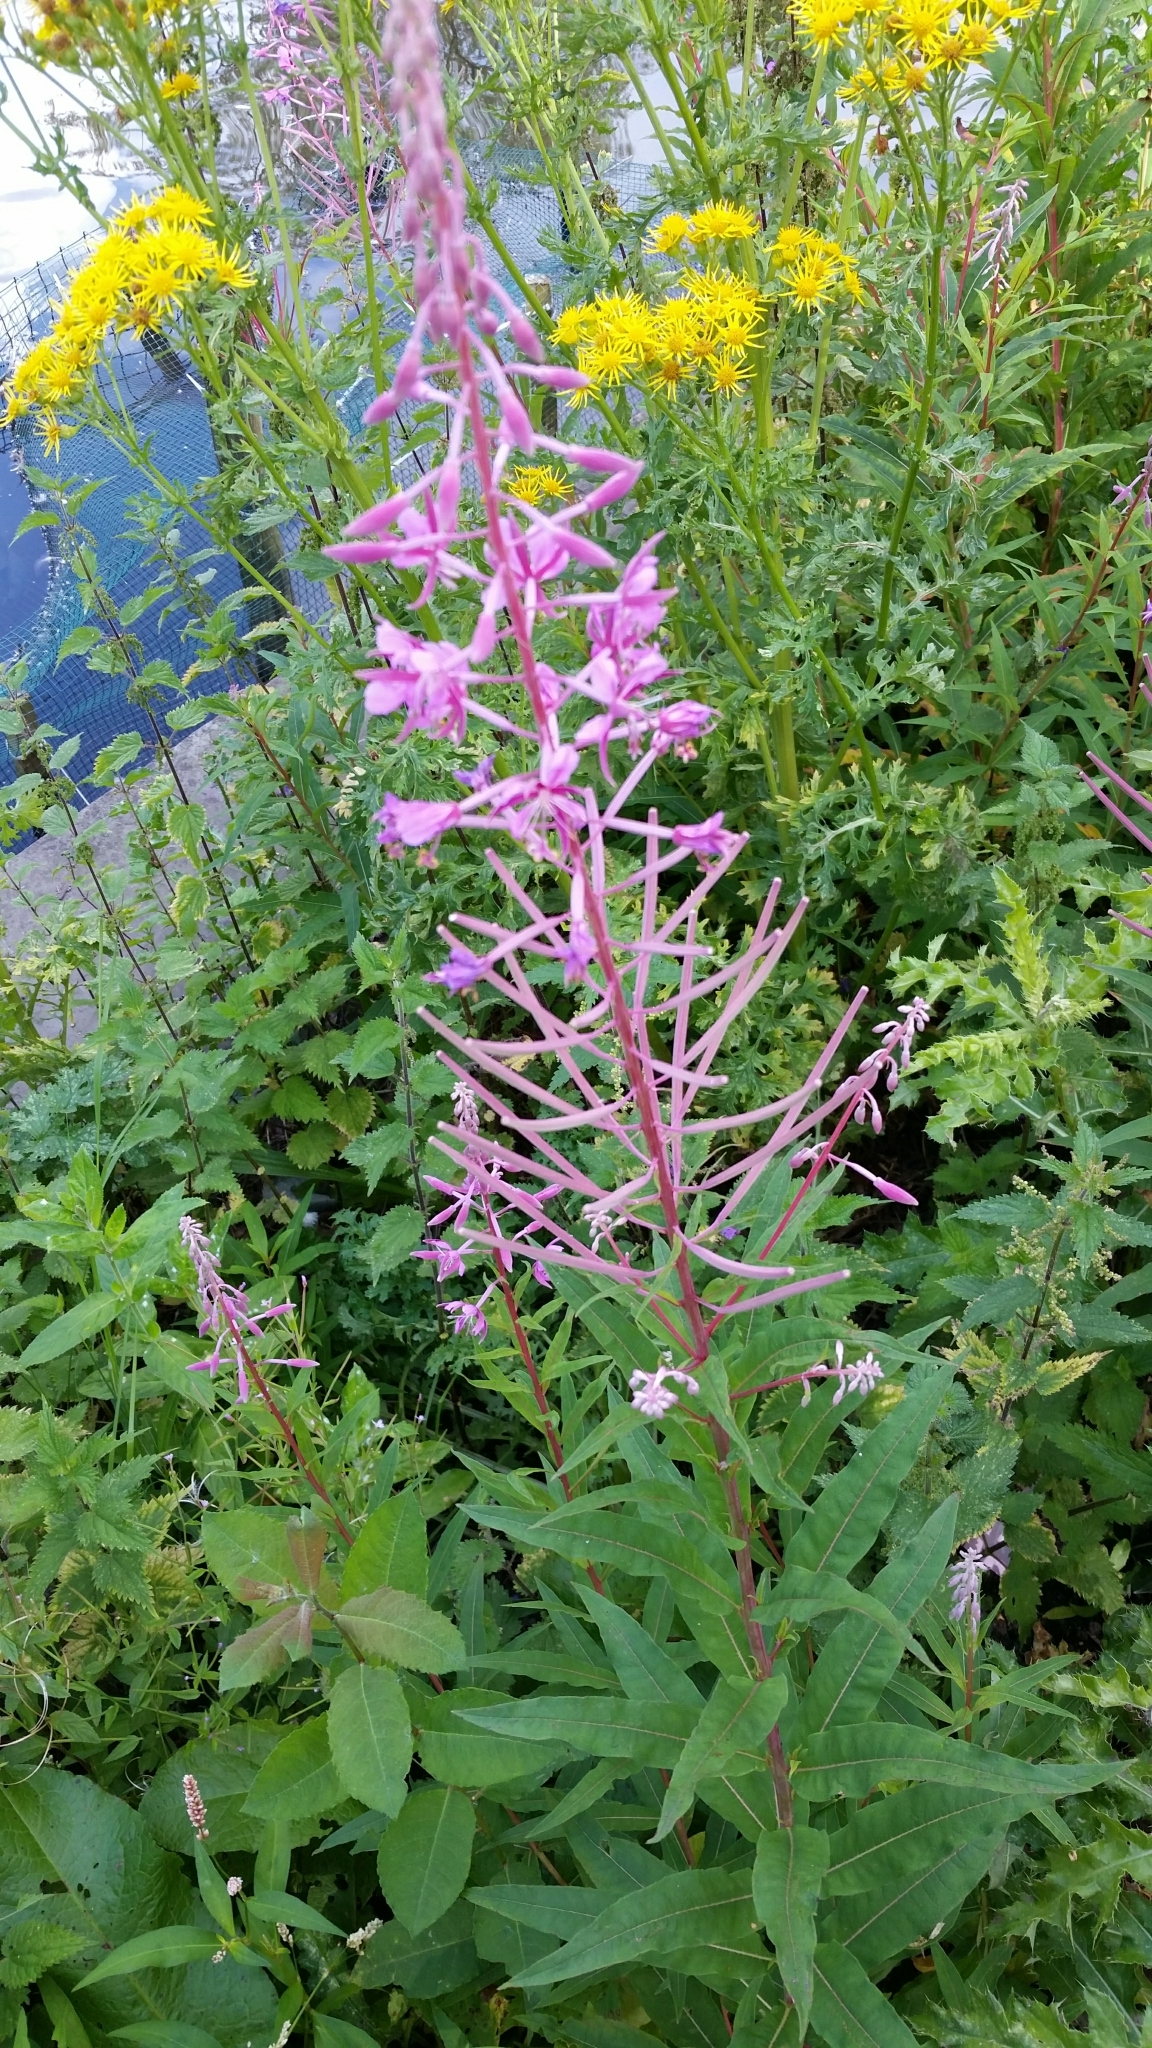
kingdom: Plantae
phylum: Tracheophyta
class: Magnoliopsida
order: Myrtales
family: Onagraceae
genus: Chamaenerion
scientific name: Chamaenerion angustifolium
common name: Fireweed
